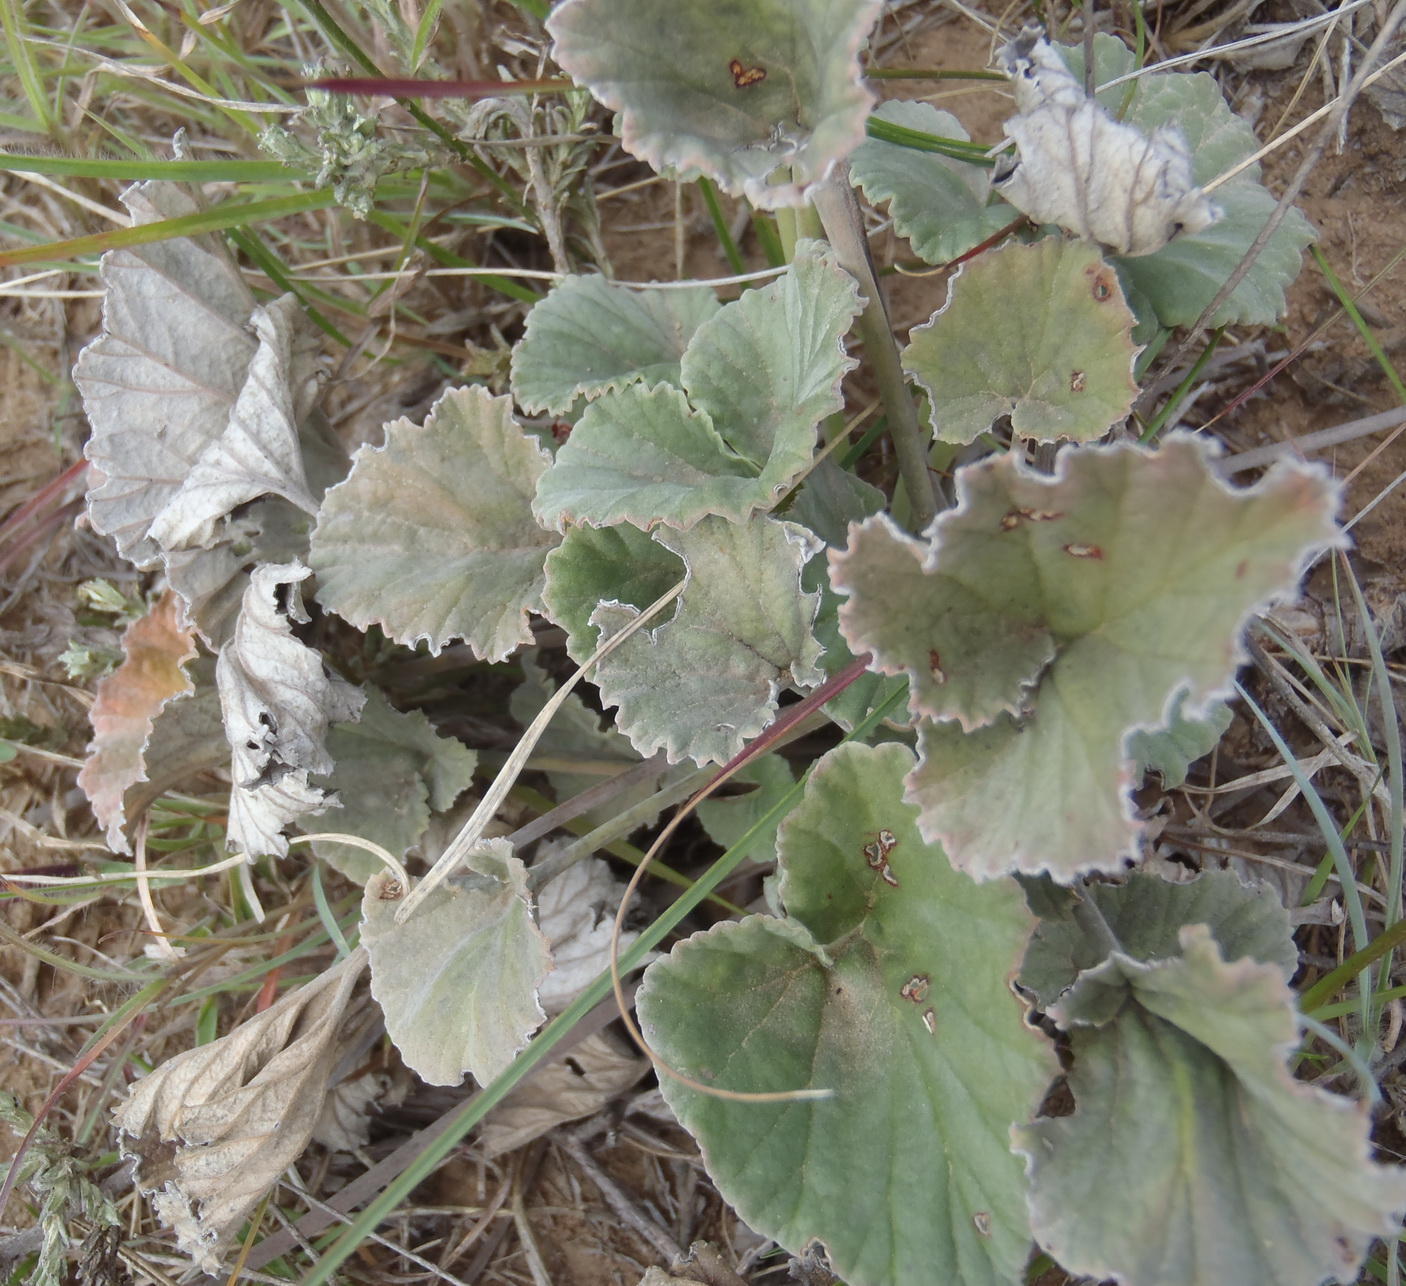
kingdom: Plantae
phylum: Tracheophyta
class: Magnoliopsida
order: Geraniales
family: Geraniaceae
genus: Pelargonium
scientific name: Pelargonium reniforme
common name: Kidney-leaf pelargonium
